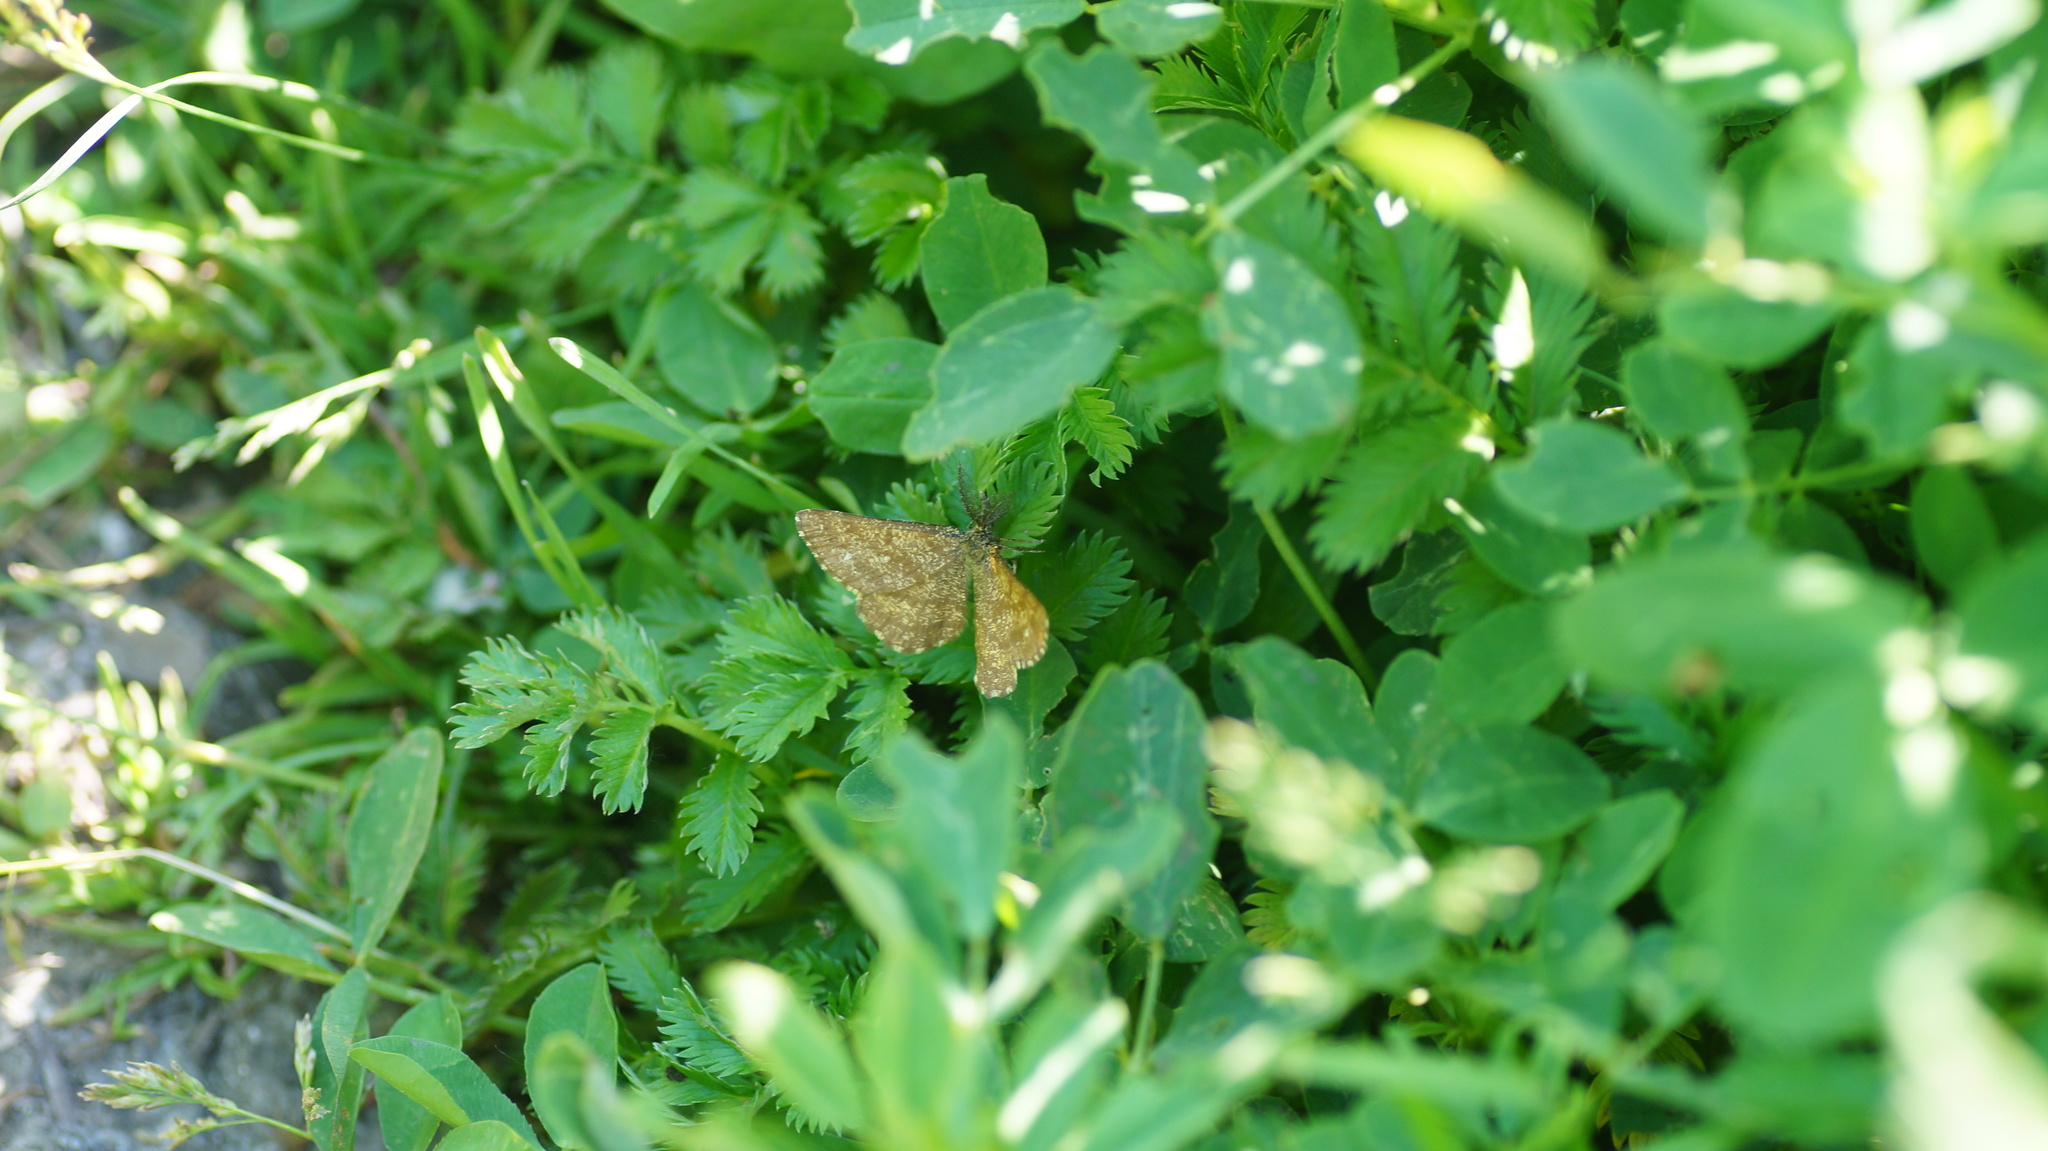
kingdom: Animalia
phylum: Arthropoda
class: Insecta
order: Lepidoptera
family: Geometridae
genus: Ematurga
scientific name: Ematurga atomaria
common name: Common heath
